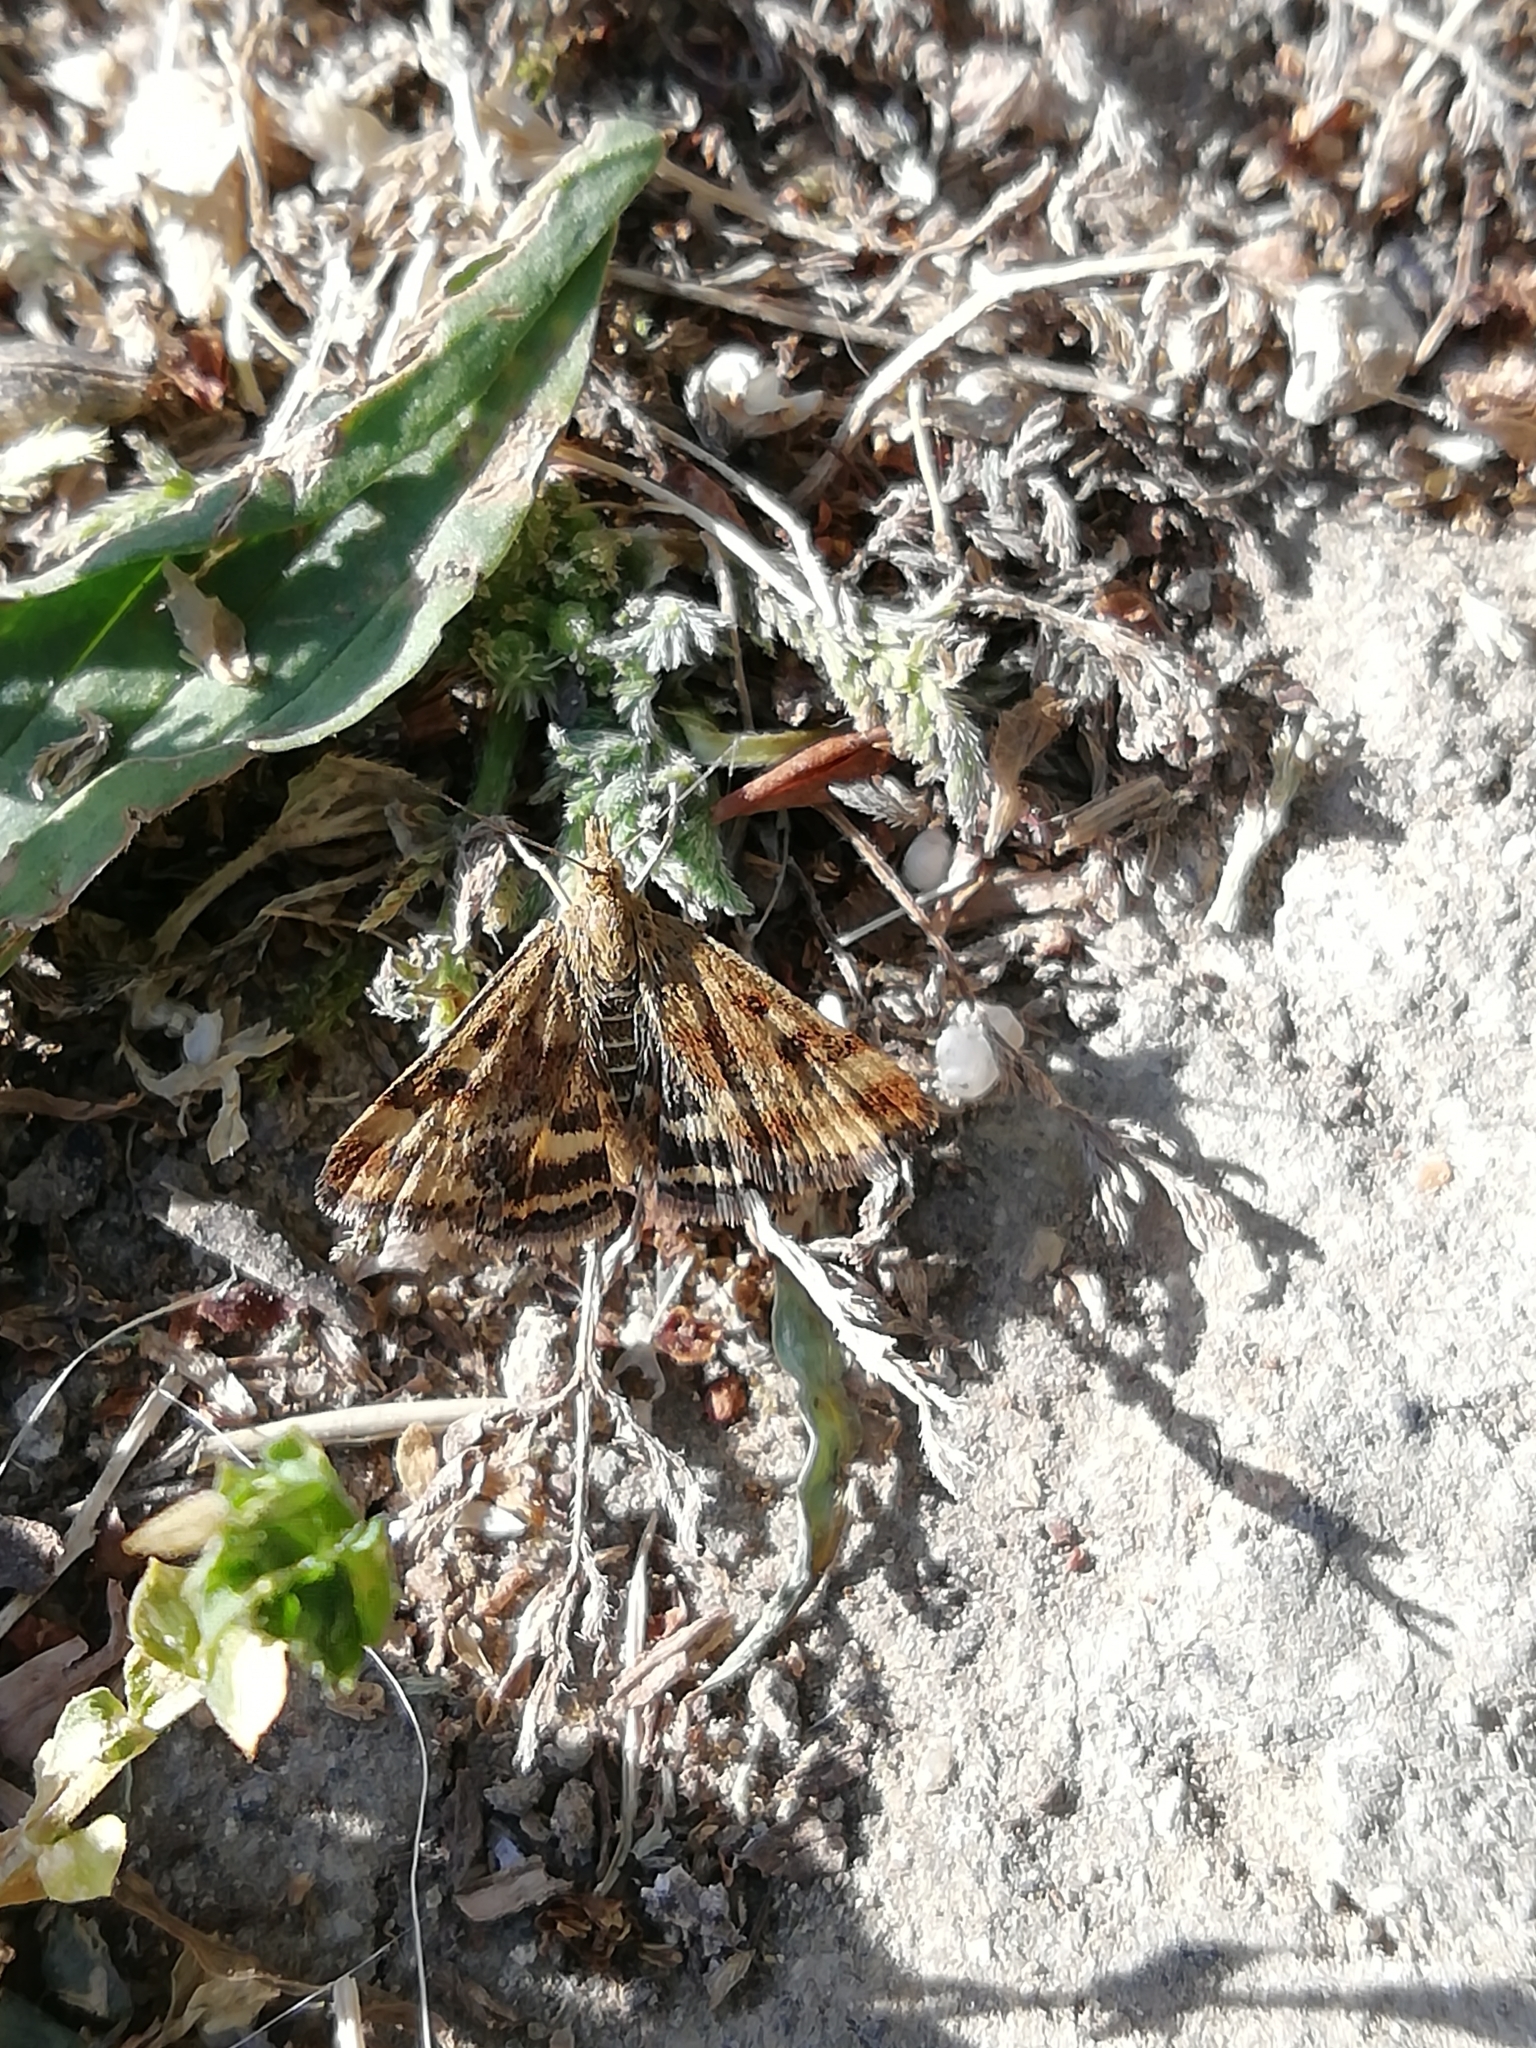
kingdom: Animalia
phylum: Arthropoda
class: Insecta
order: Lepidoptera
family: Crambidae
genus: Pyrausta
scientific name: Pyrausta despicata
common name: Straw-barred pearl
